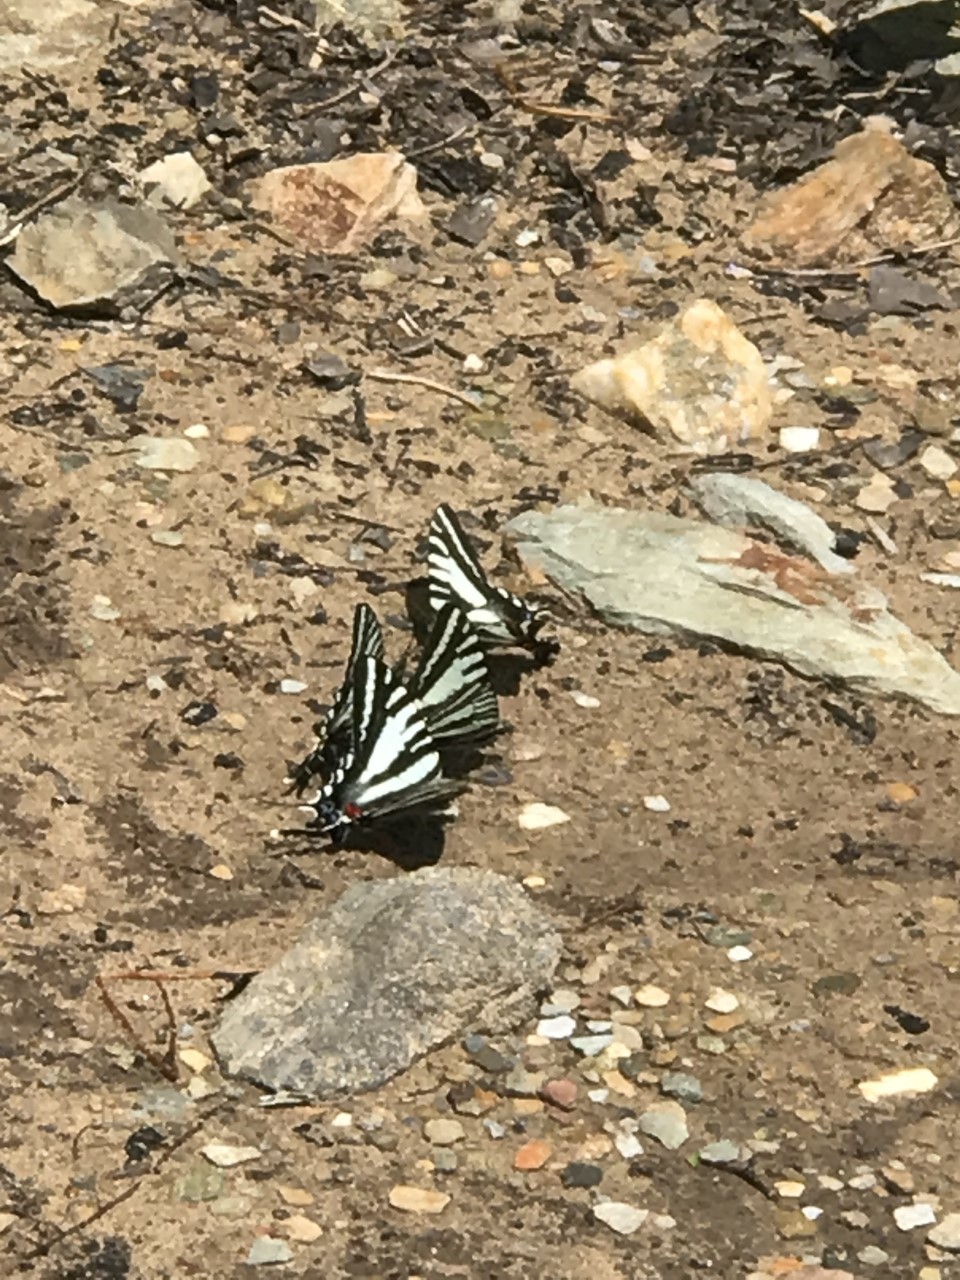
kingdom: Animalia
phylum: Arthropoda
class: Insecta
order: Lepidoptera
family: Papilionidae
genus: Protographium
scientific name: Protographium marcellus
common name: Zebra swallowtail
